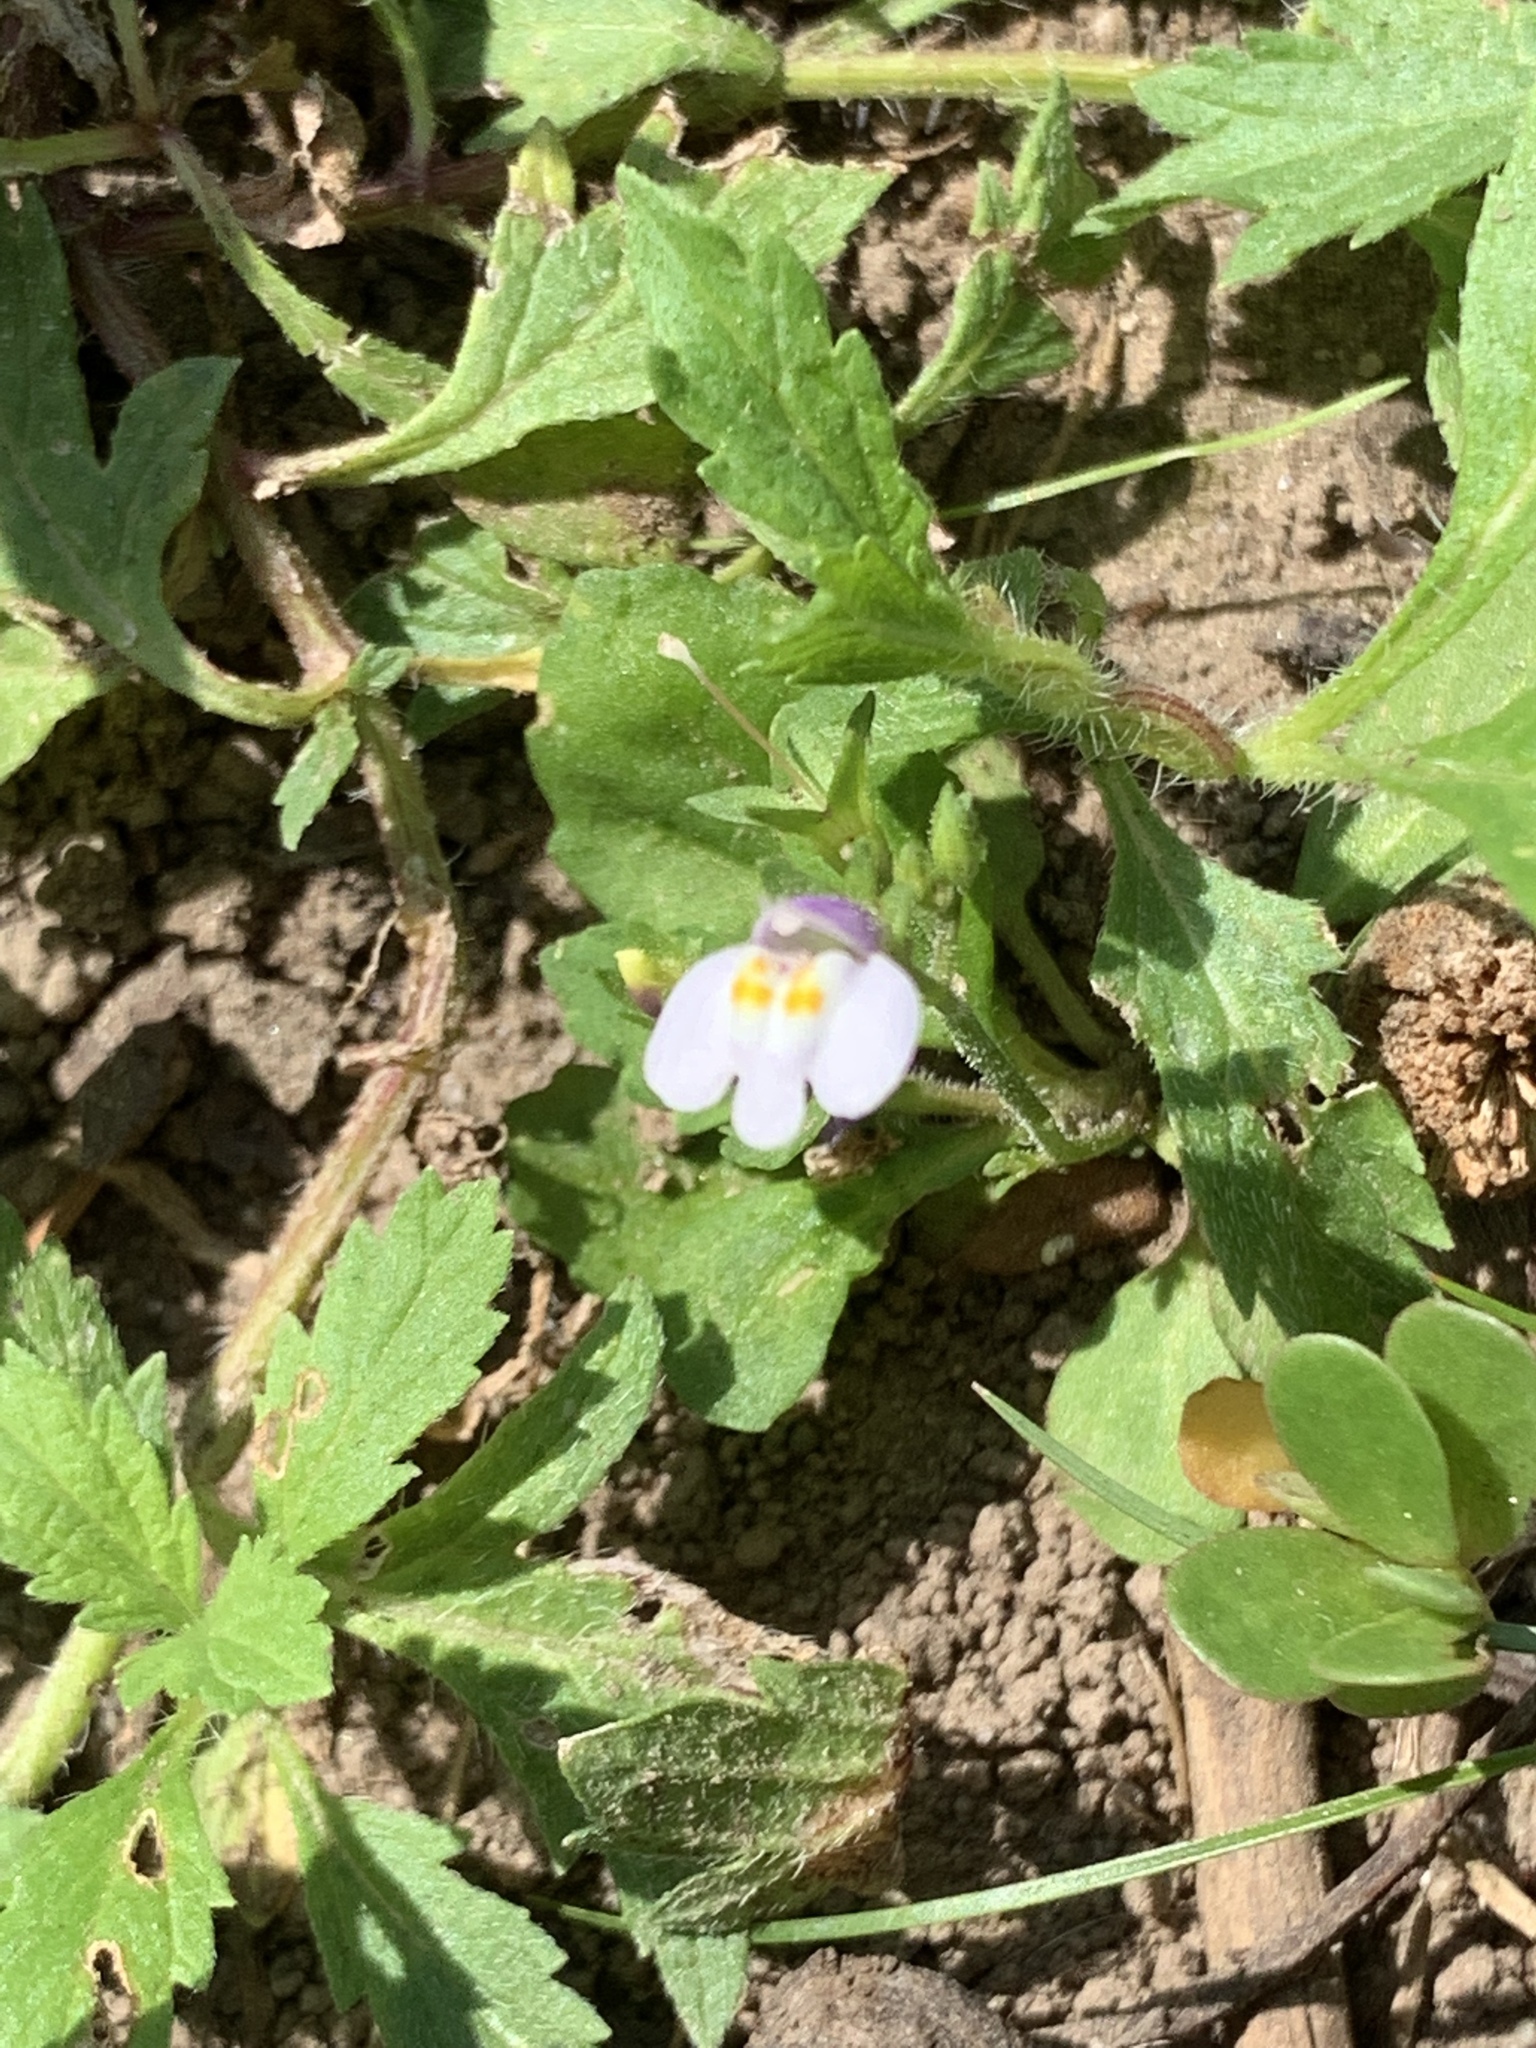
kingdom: Plantae
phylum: Tracheophyta
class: Magnoliopsida
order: Lamiales
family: Mazaceae
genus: Mazus
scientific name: Mazus pumilus
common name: Japanese mazus
